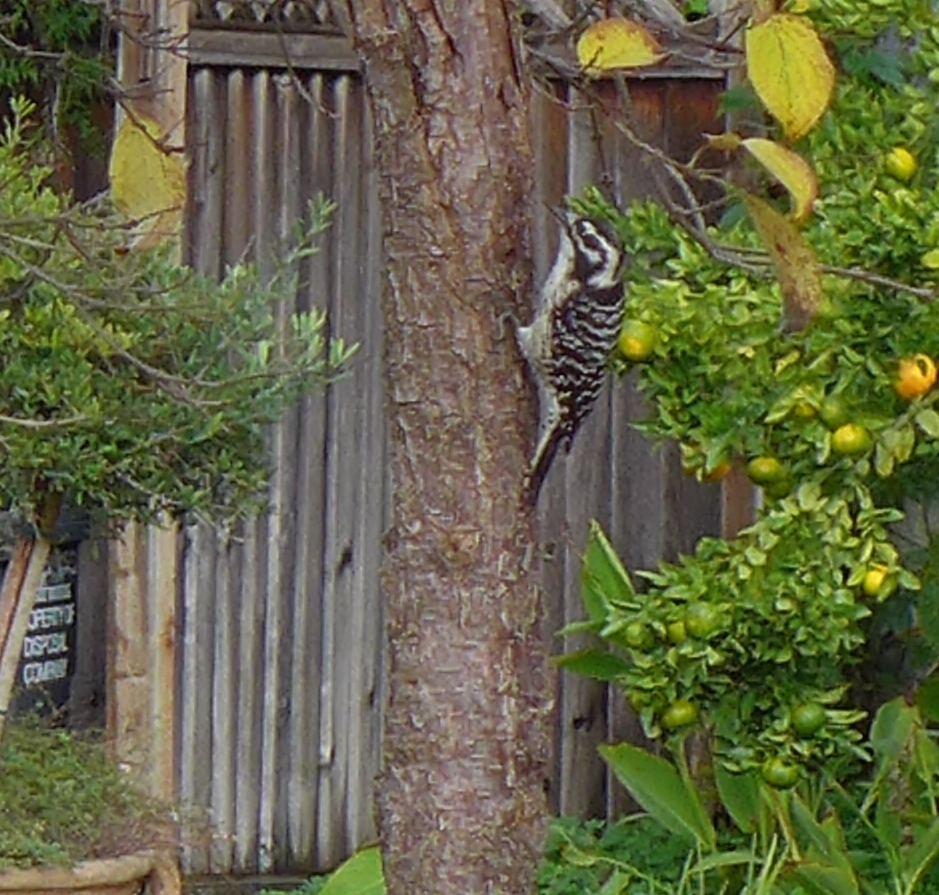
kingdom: Animalia
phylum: Chordata
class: Aves
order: Piciformes
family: Picidae
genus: Dryobates
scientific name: Dryobates nuttallii
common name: Nuttall's woodpecker
